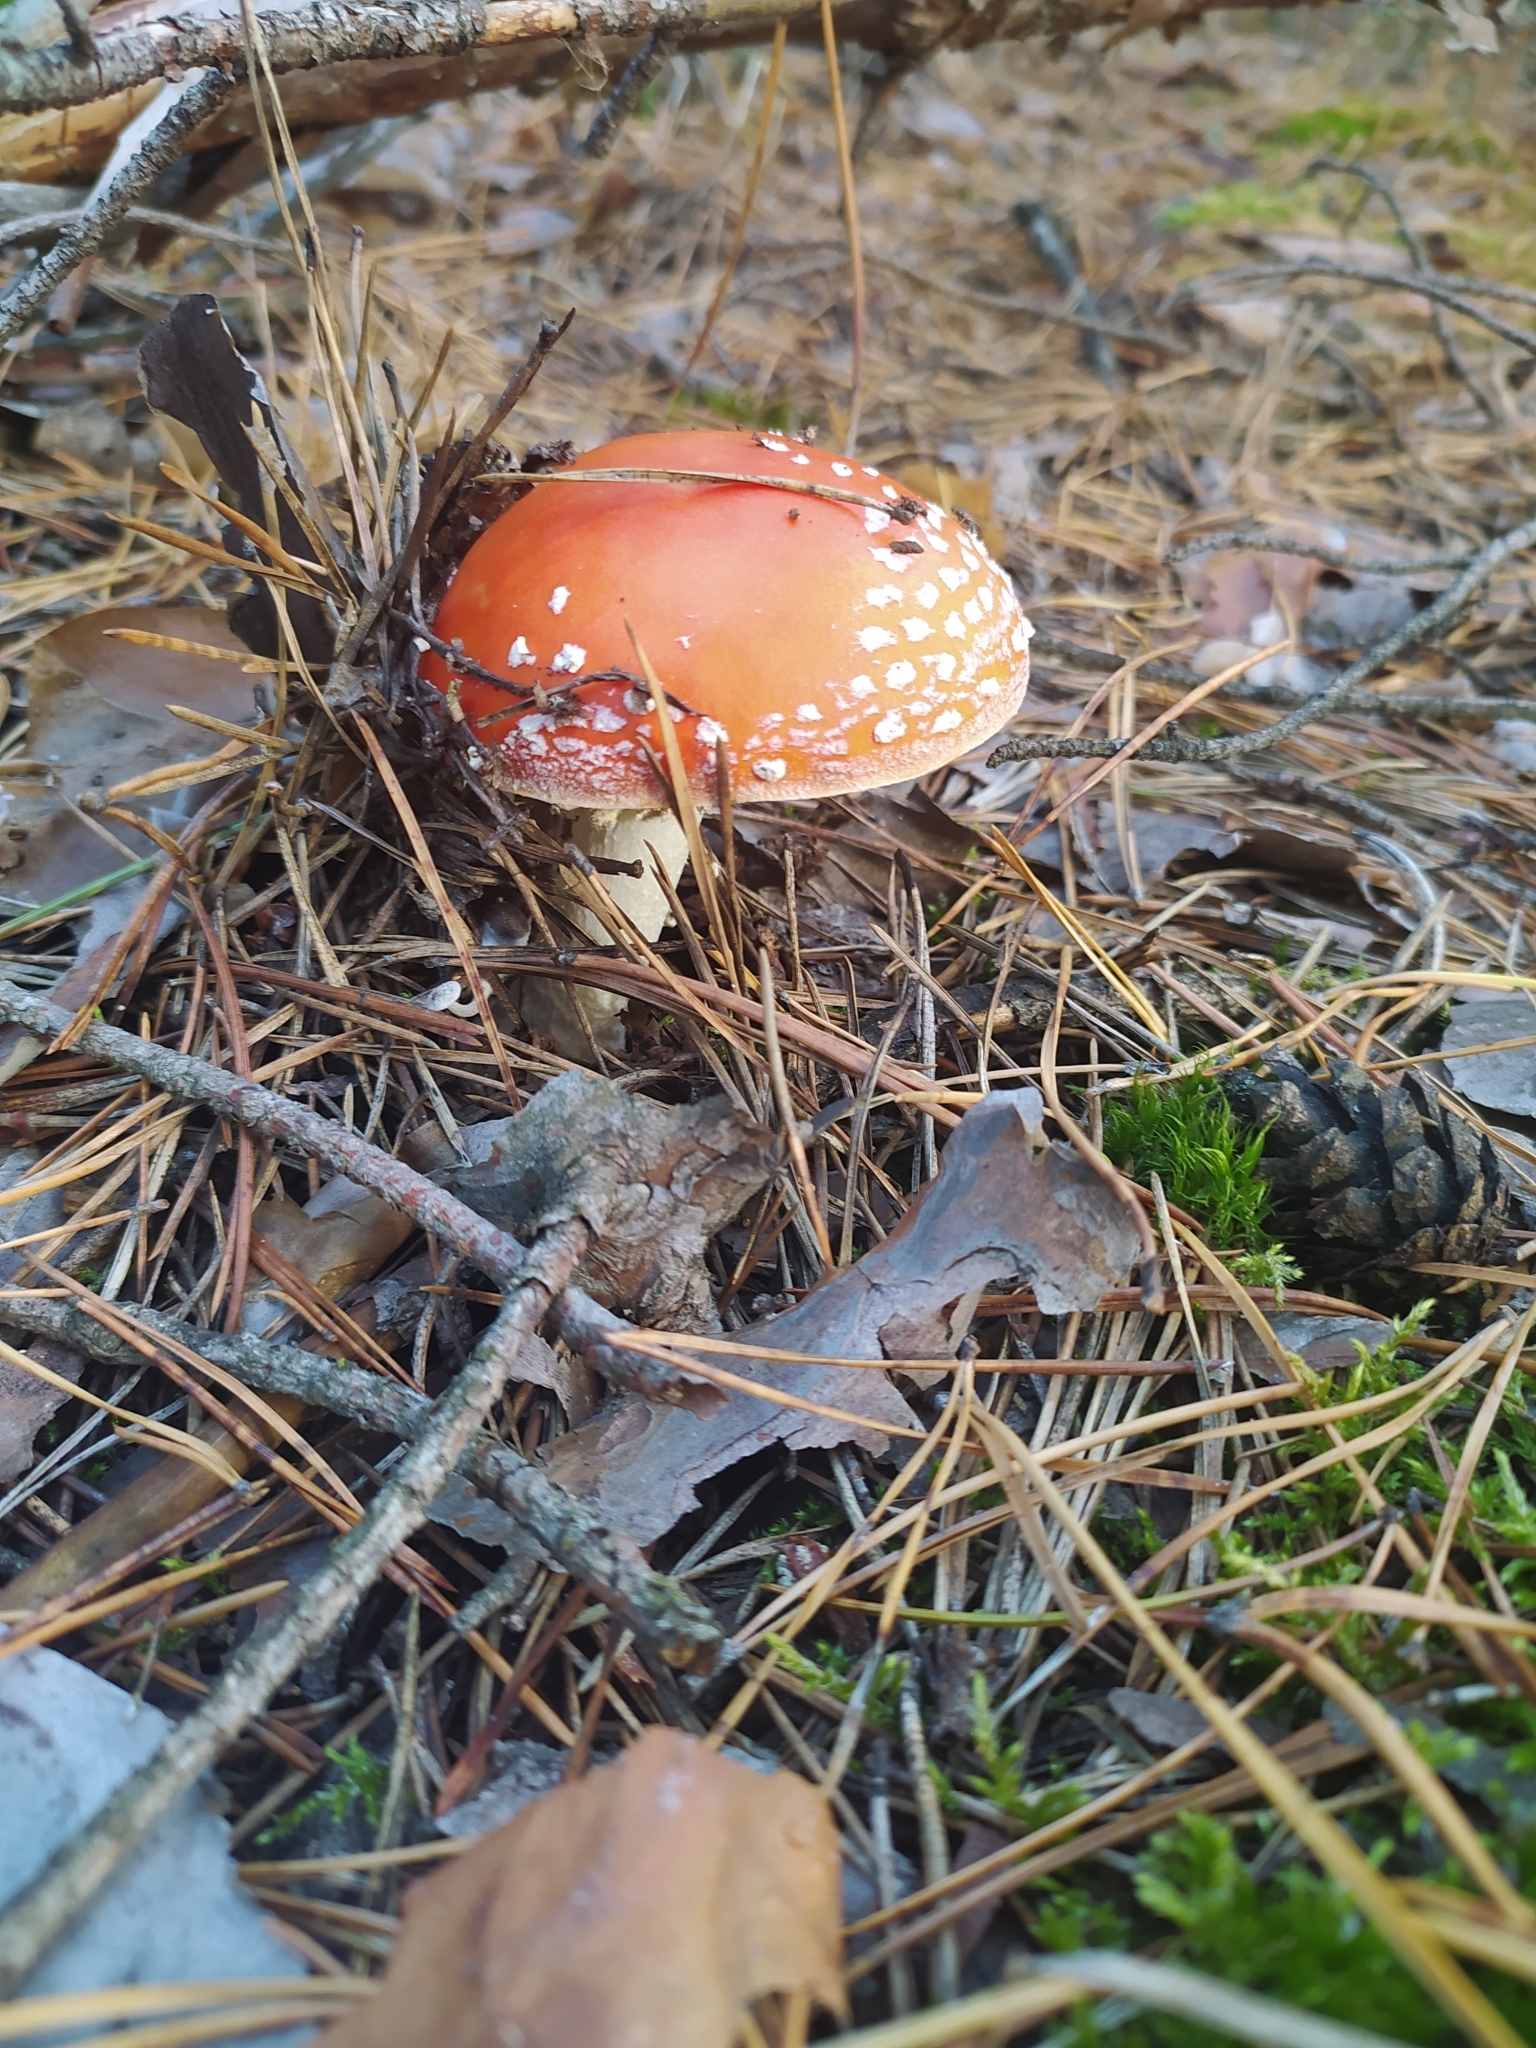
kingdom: Fungi
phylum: Basidiomycota
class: Agaricomycetes
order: Agaricales
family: Amanitaceae
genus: Amanita
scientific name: Amanita muscaria
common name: Fly agaric
